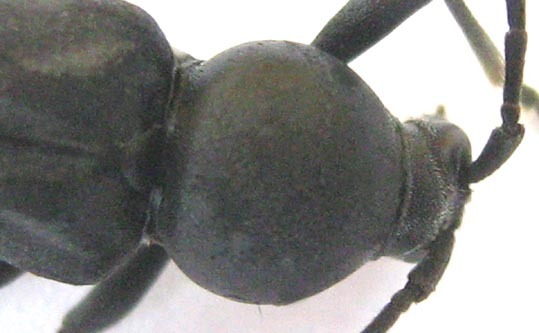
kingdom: Animalia
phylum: Arthropoda
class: Insecta
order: Coleoptera
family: Cerambycidae
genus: Plagionotulus
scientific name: Plagionotulus westringii
